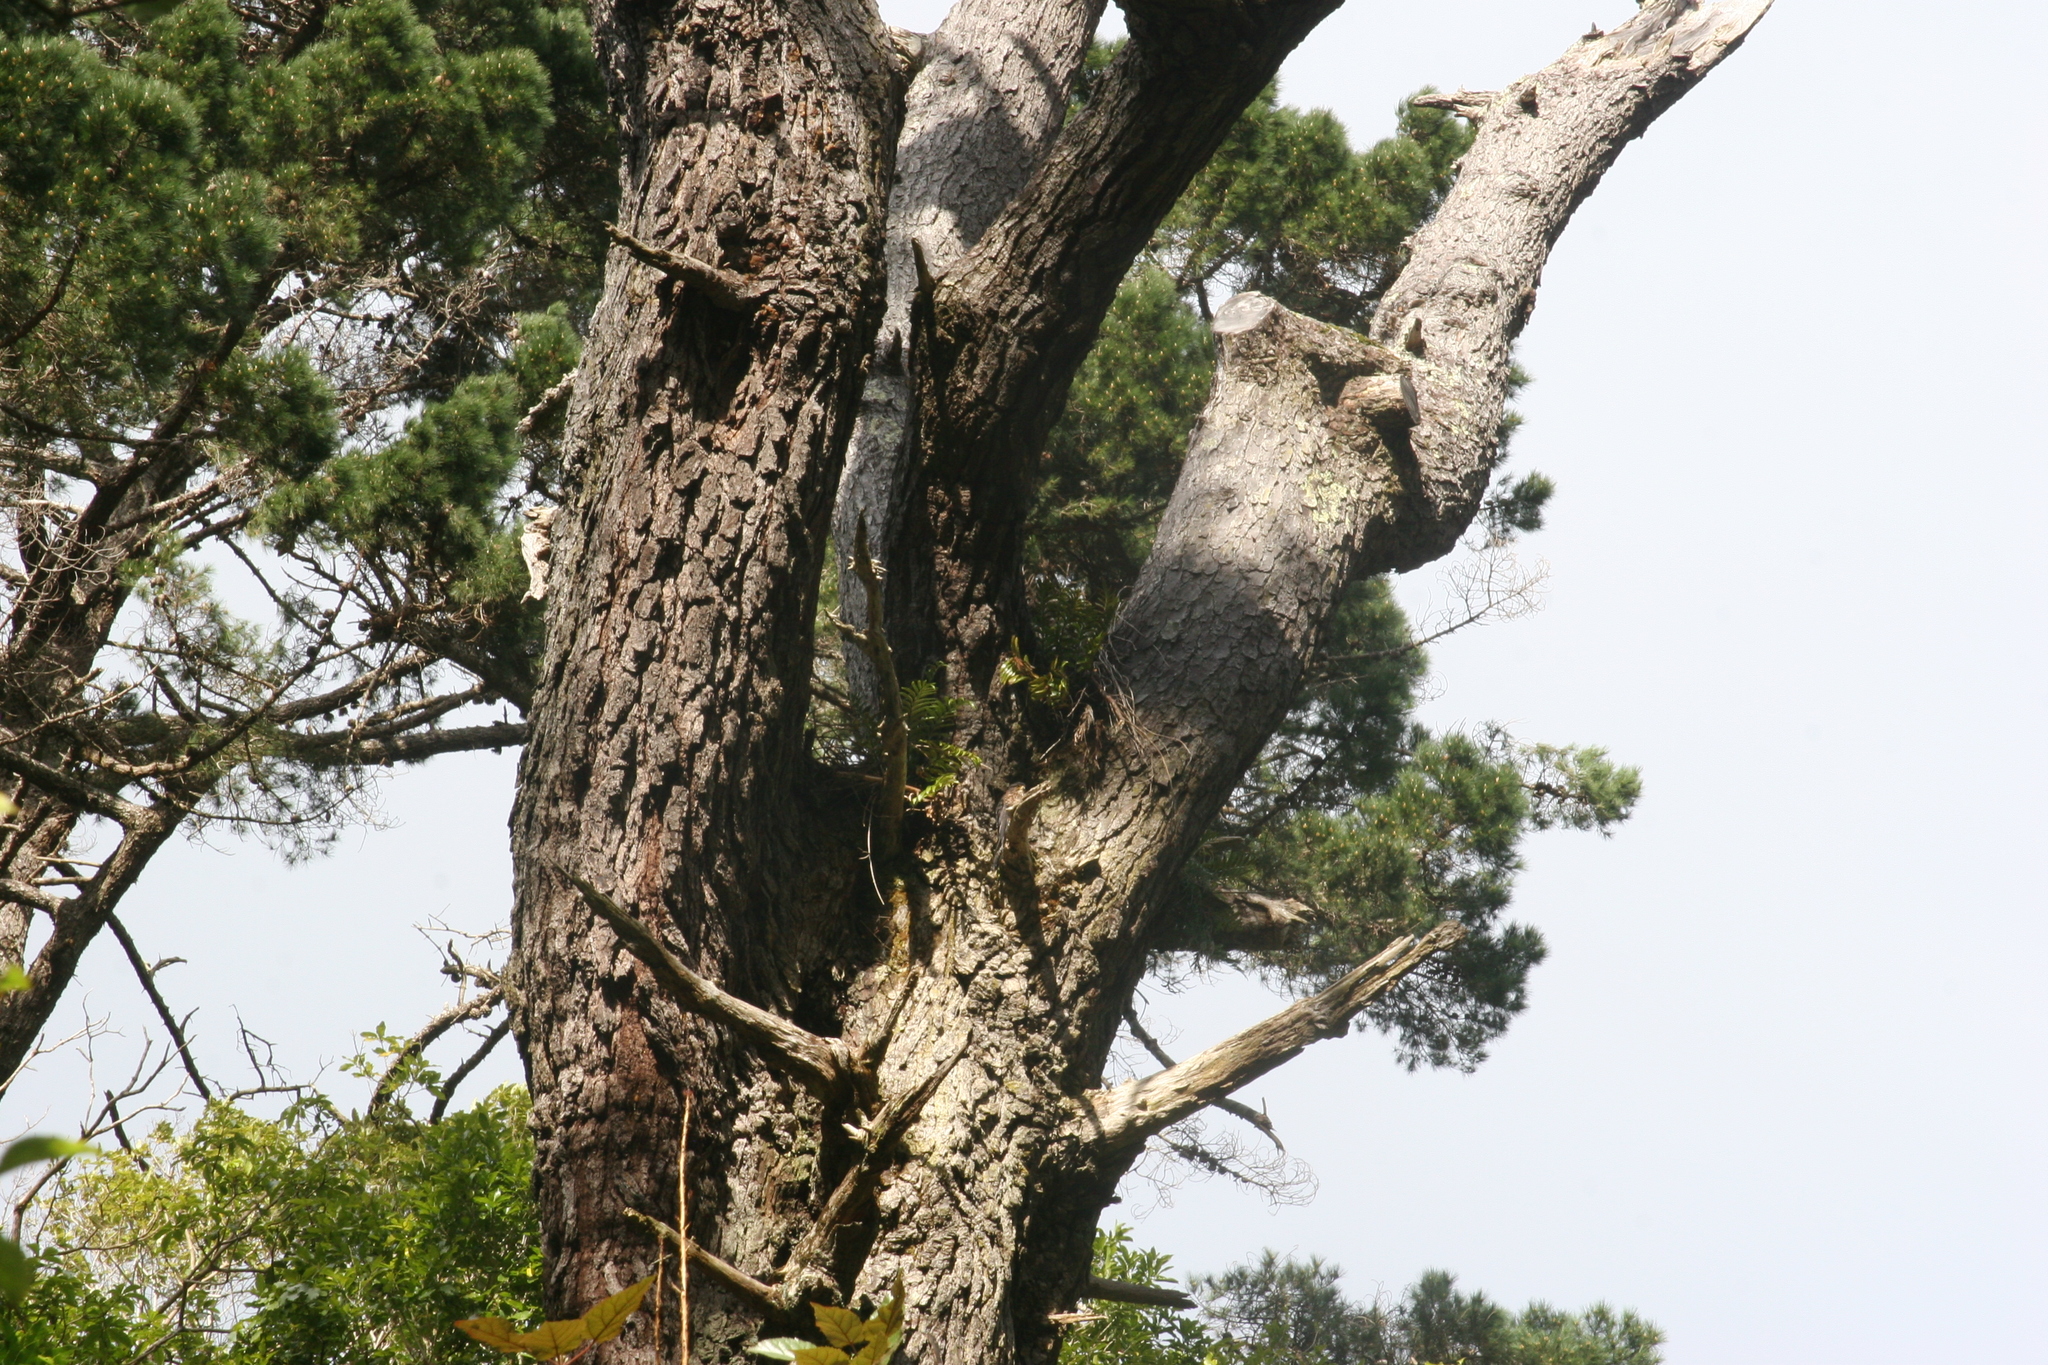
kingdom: Animalia
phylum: Chordata
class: Aves
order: Falconiformes
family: Falconidae
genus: Falco
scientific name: Falco novaeseelandiae
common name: New zealand falcon
